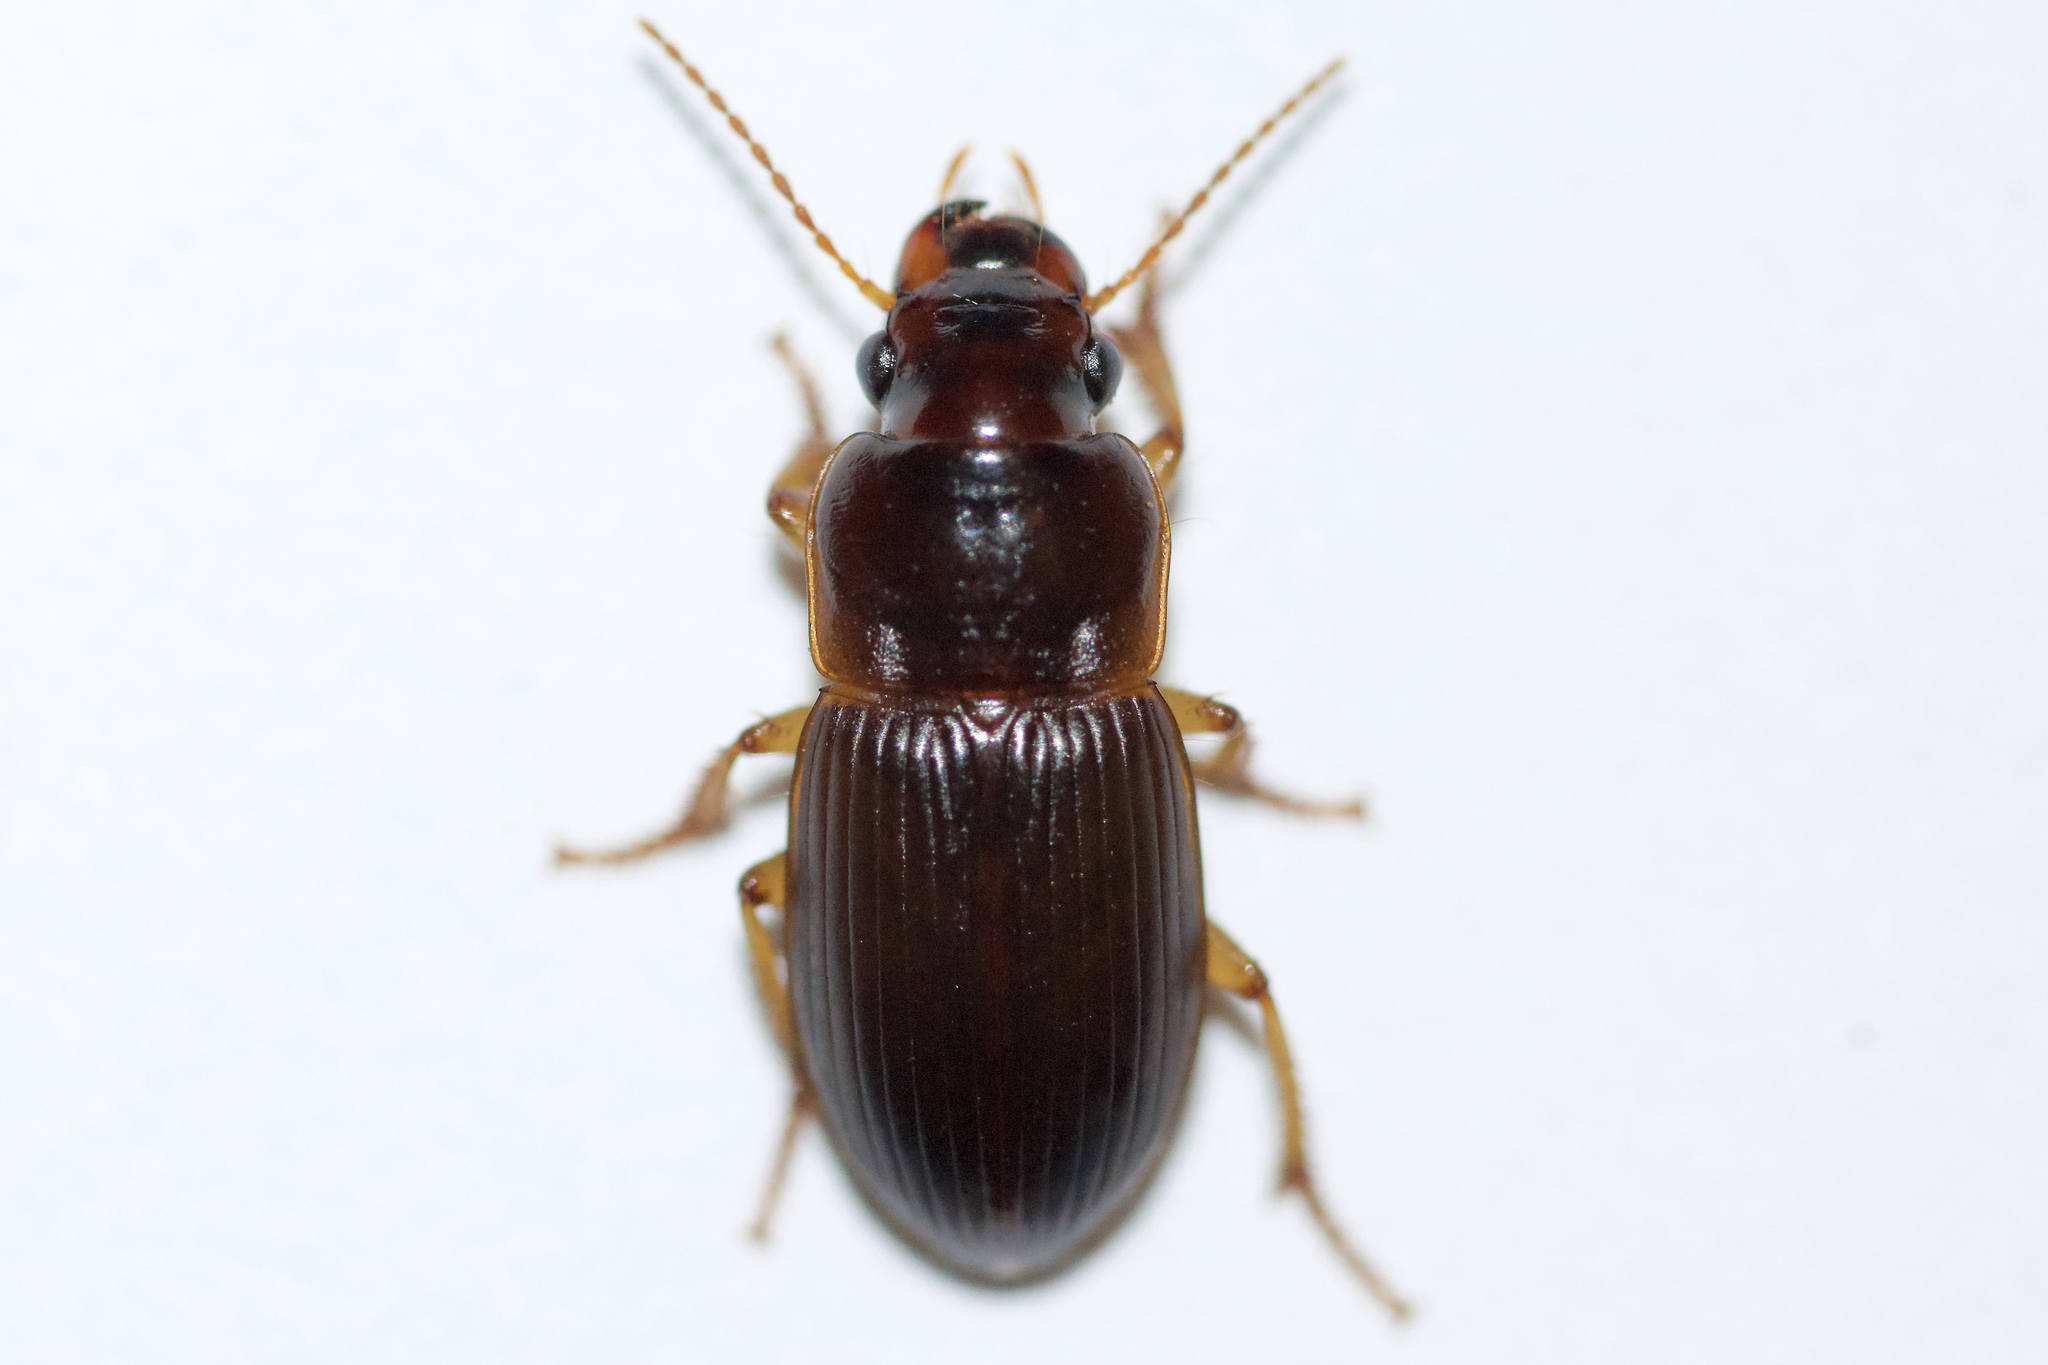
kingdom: Animalia
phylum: Arthropoda
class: Insecta
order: Coleoptera
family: Carabidae
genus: Harpalus
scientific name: Harpalus somnulentus
